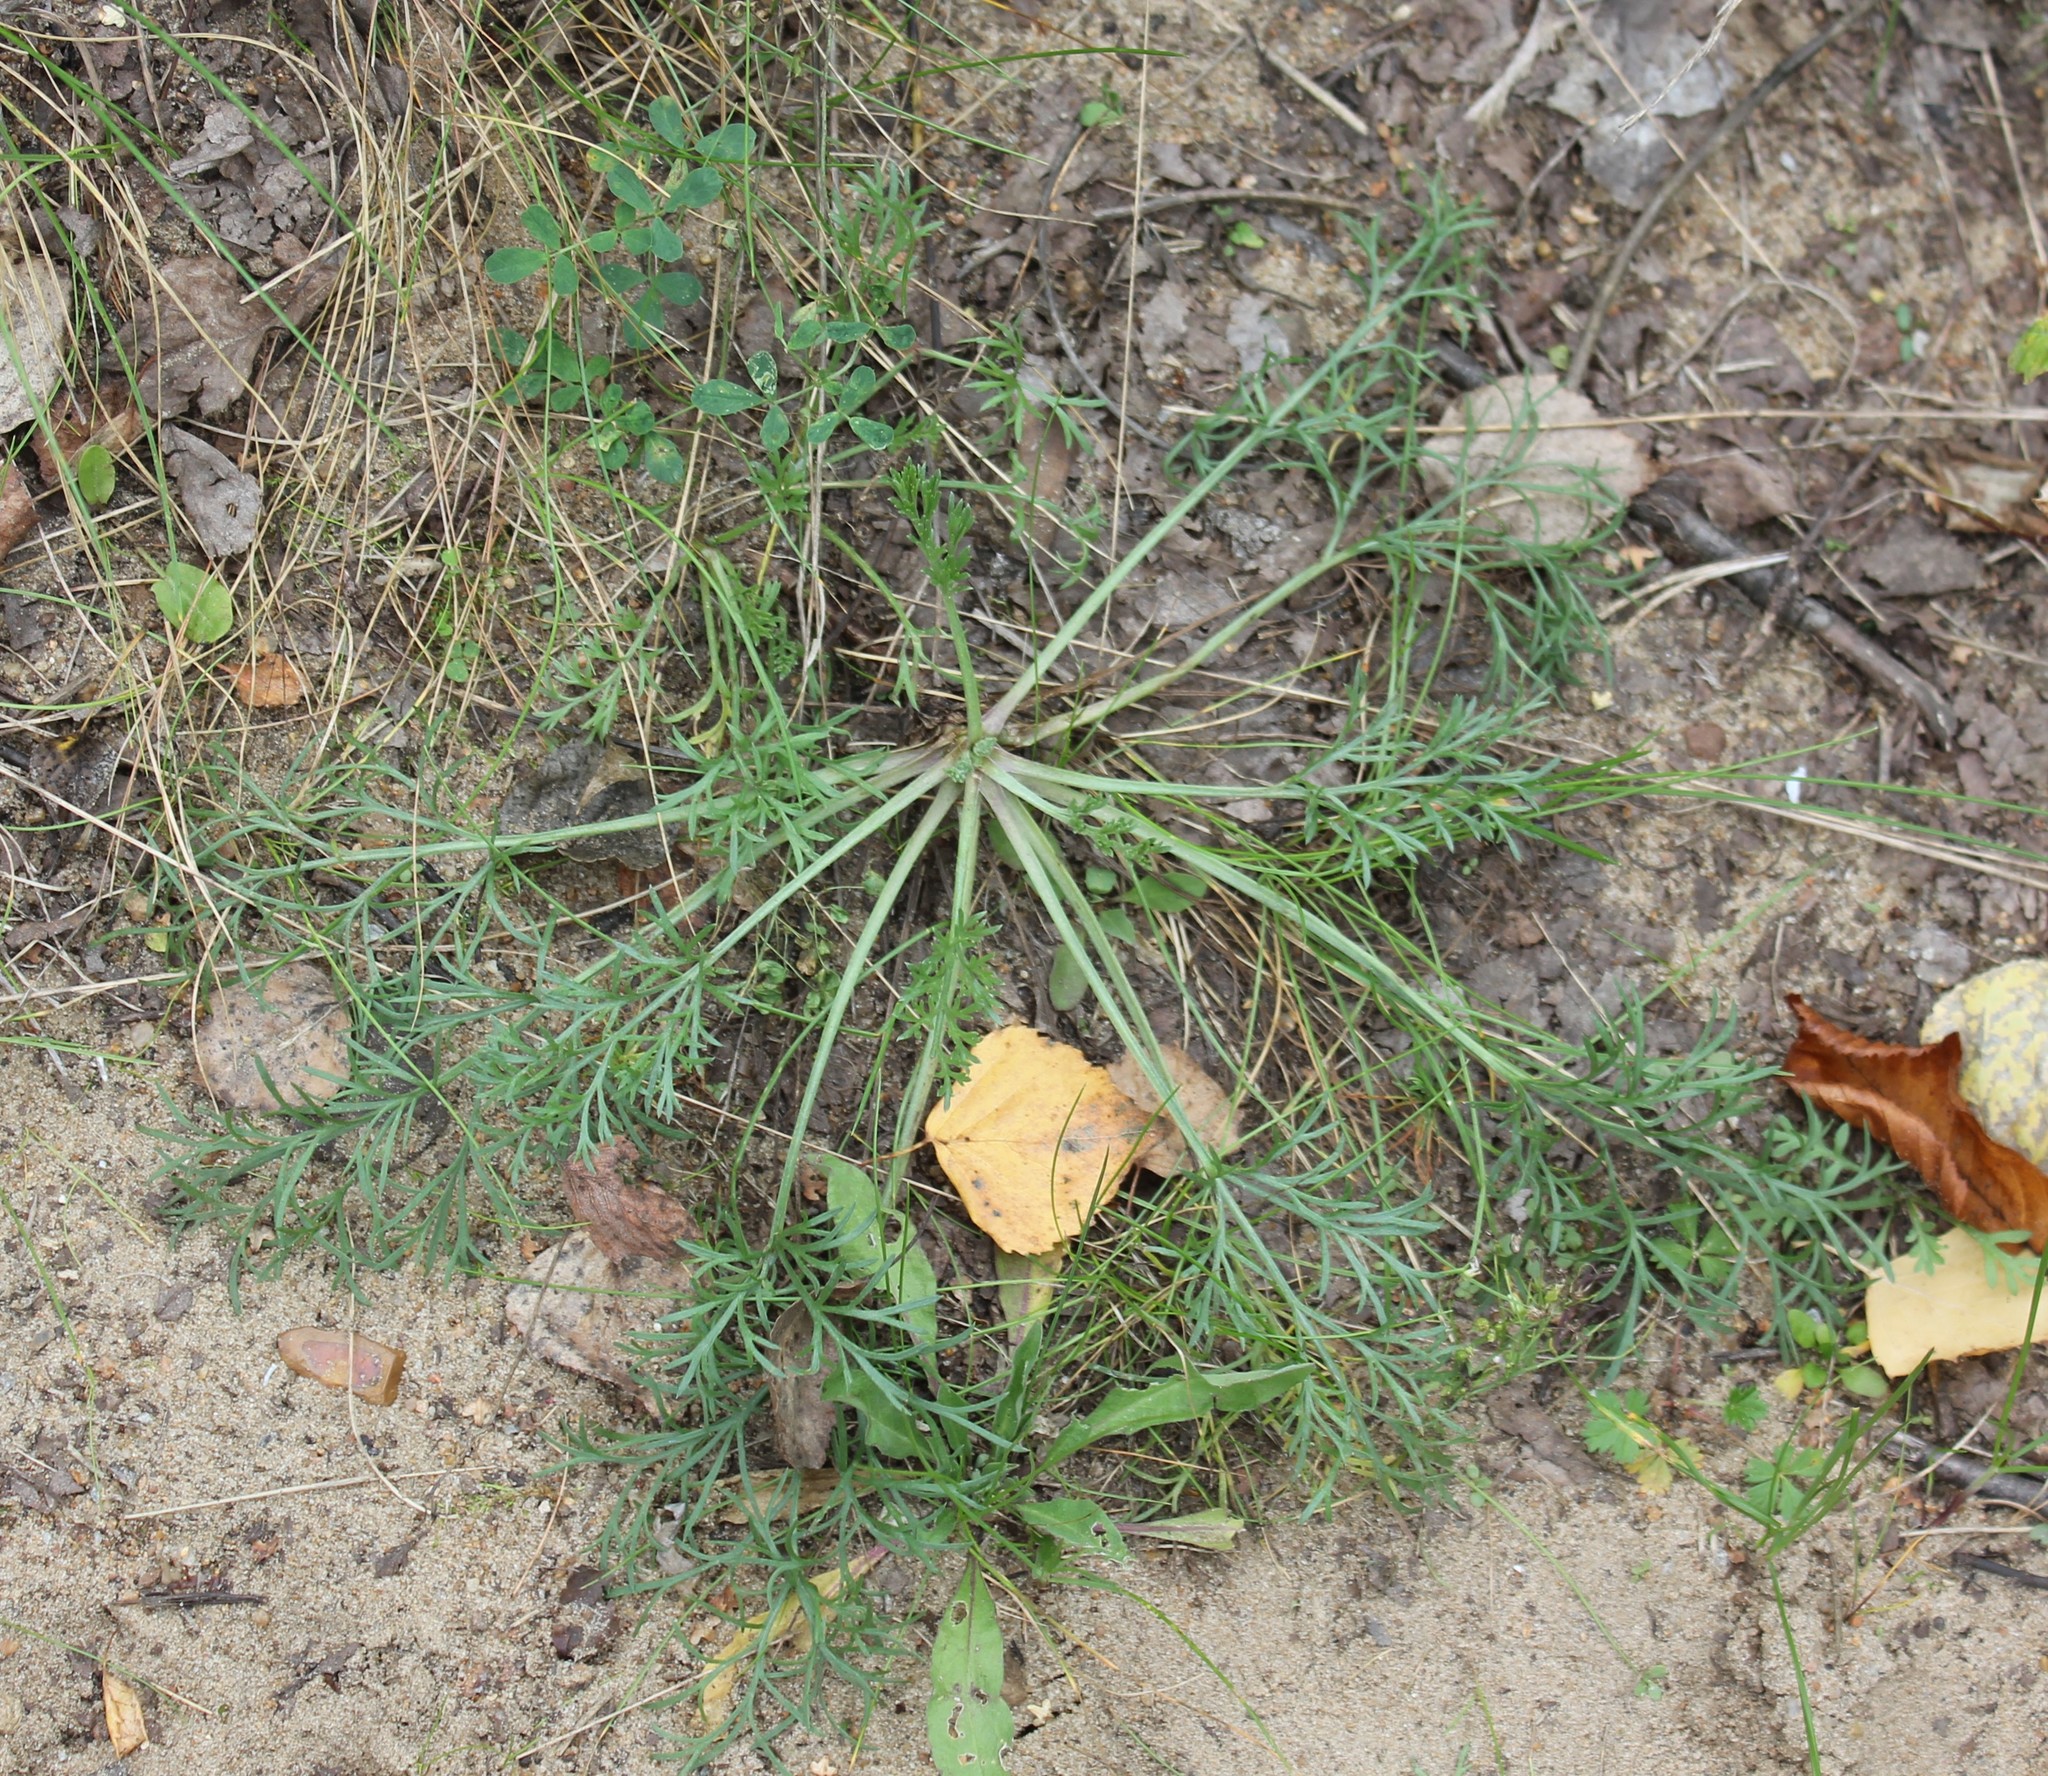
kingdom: Plantae
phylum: Tracheophyta
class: Magnoliopsida
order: Asterales
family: Asteraceae
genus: Artemisia
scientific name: Artemisia campestris
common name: Field wormwood
